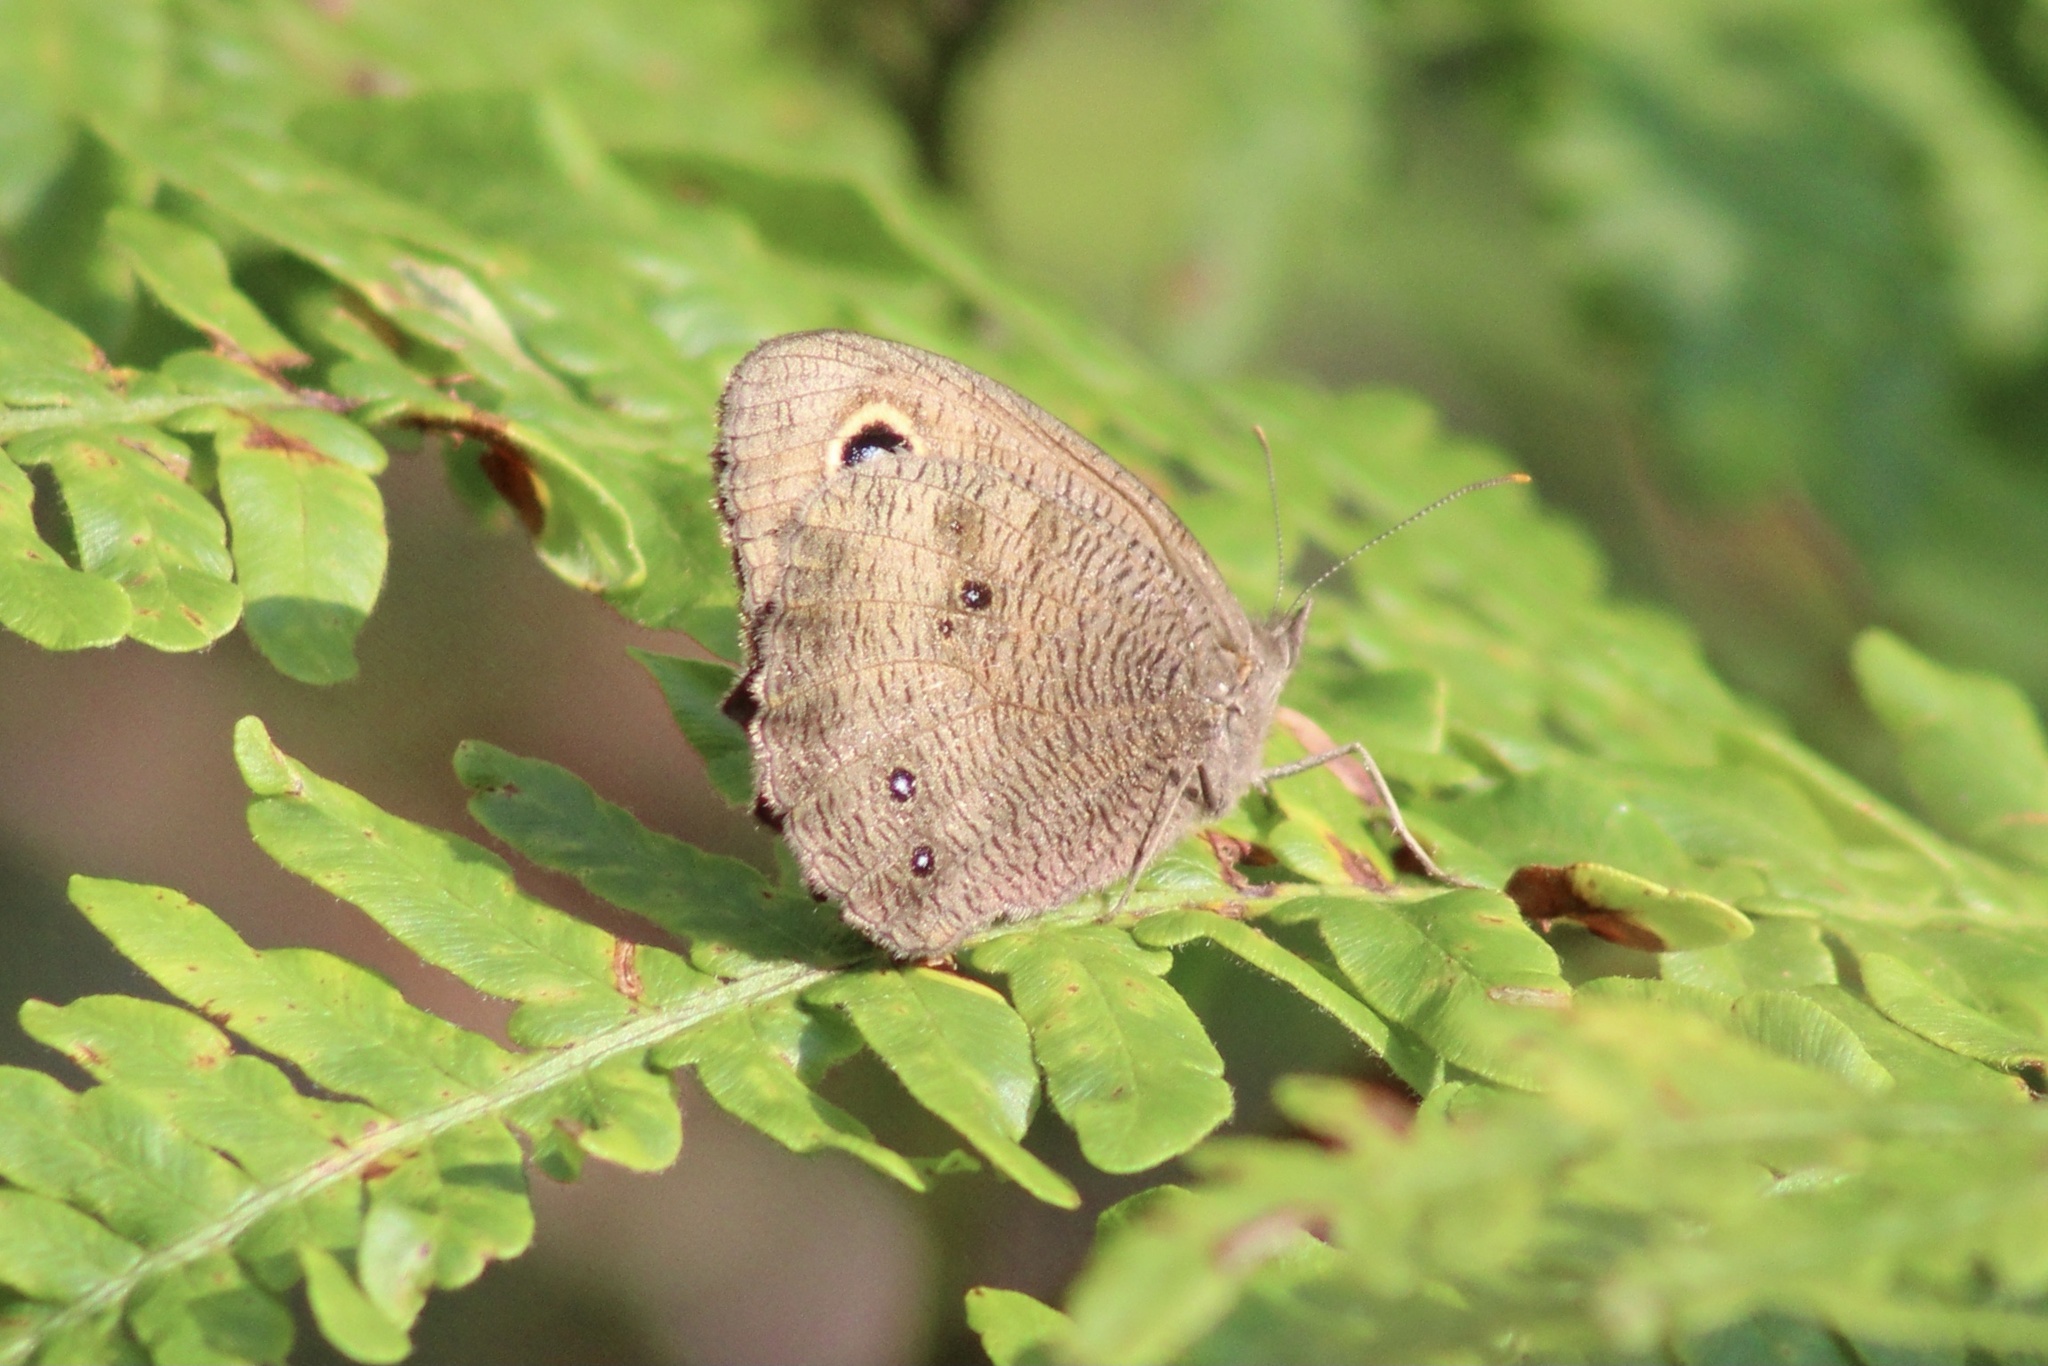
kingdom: Animalia
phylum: Arthropoda
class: Insecta
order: Lepidoptera
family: Nymphalidae
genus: Cercyonis
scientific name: Cercyonis pegala
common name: Common wood-nymph
